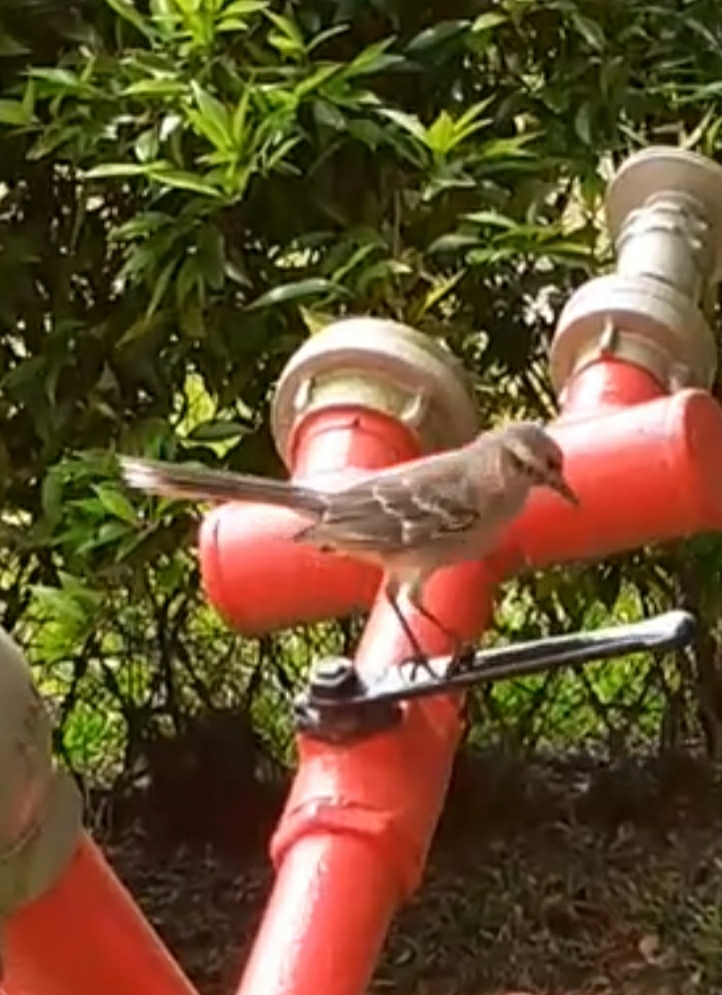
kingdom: Animalia
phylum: Chordata
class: Aves
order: Passeriformes
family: Mimidae
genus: Mimus
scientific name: Mimus saturninus
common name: Chalk-browed mockingbird
